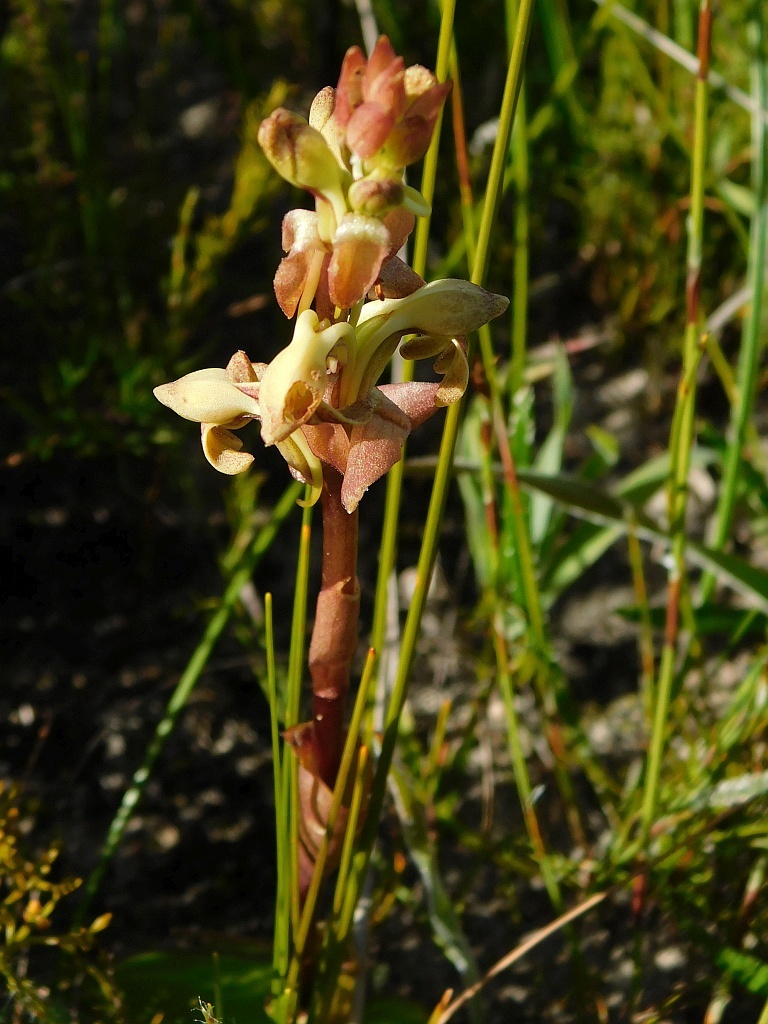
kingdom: Plantae
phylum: Tracheophyta
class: Liliopsida
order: Asparagales
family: Orchidaceae
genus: Satyrium
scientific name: Satyrium bicorne
